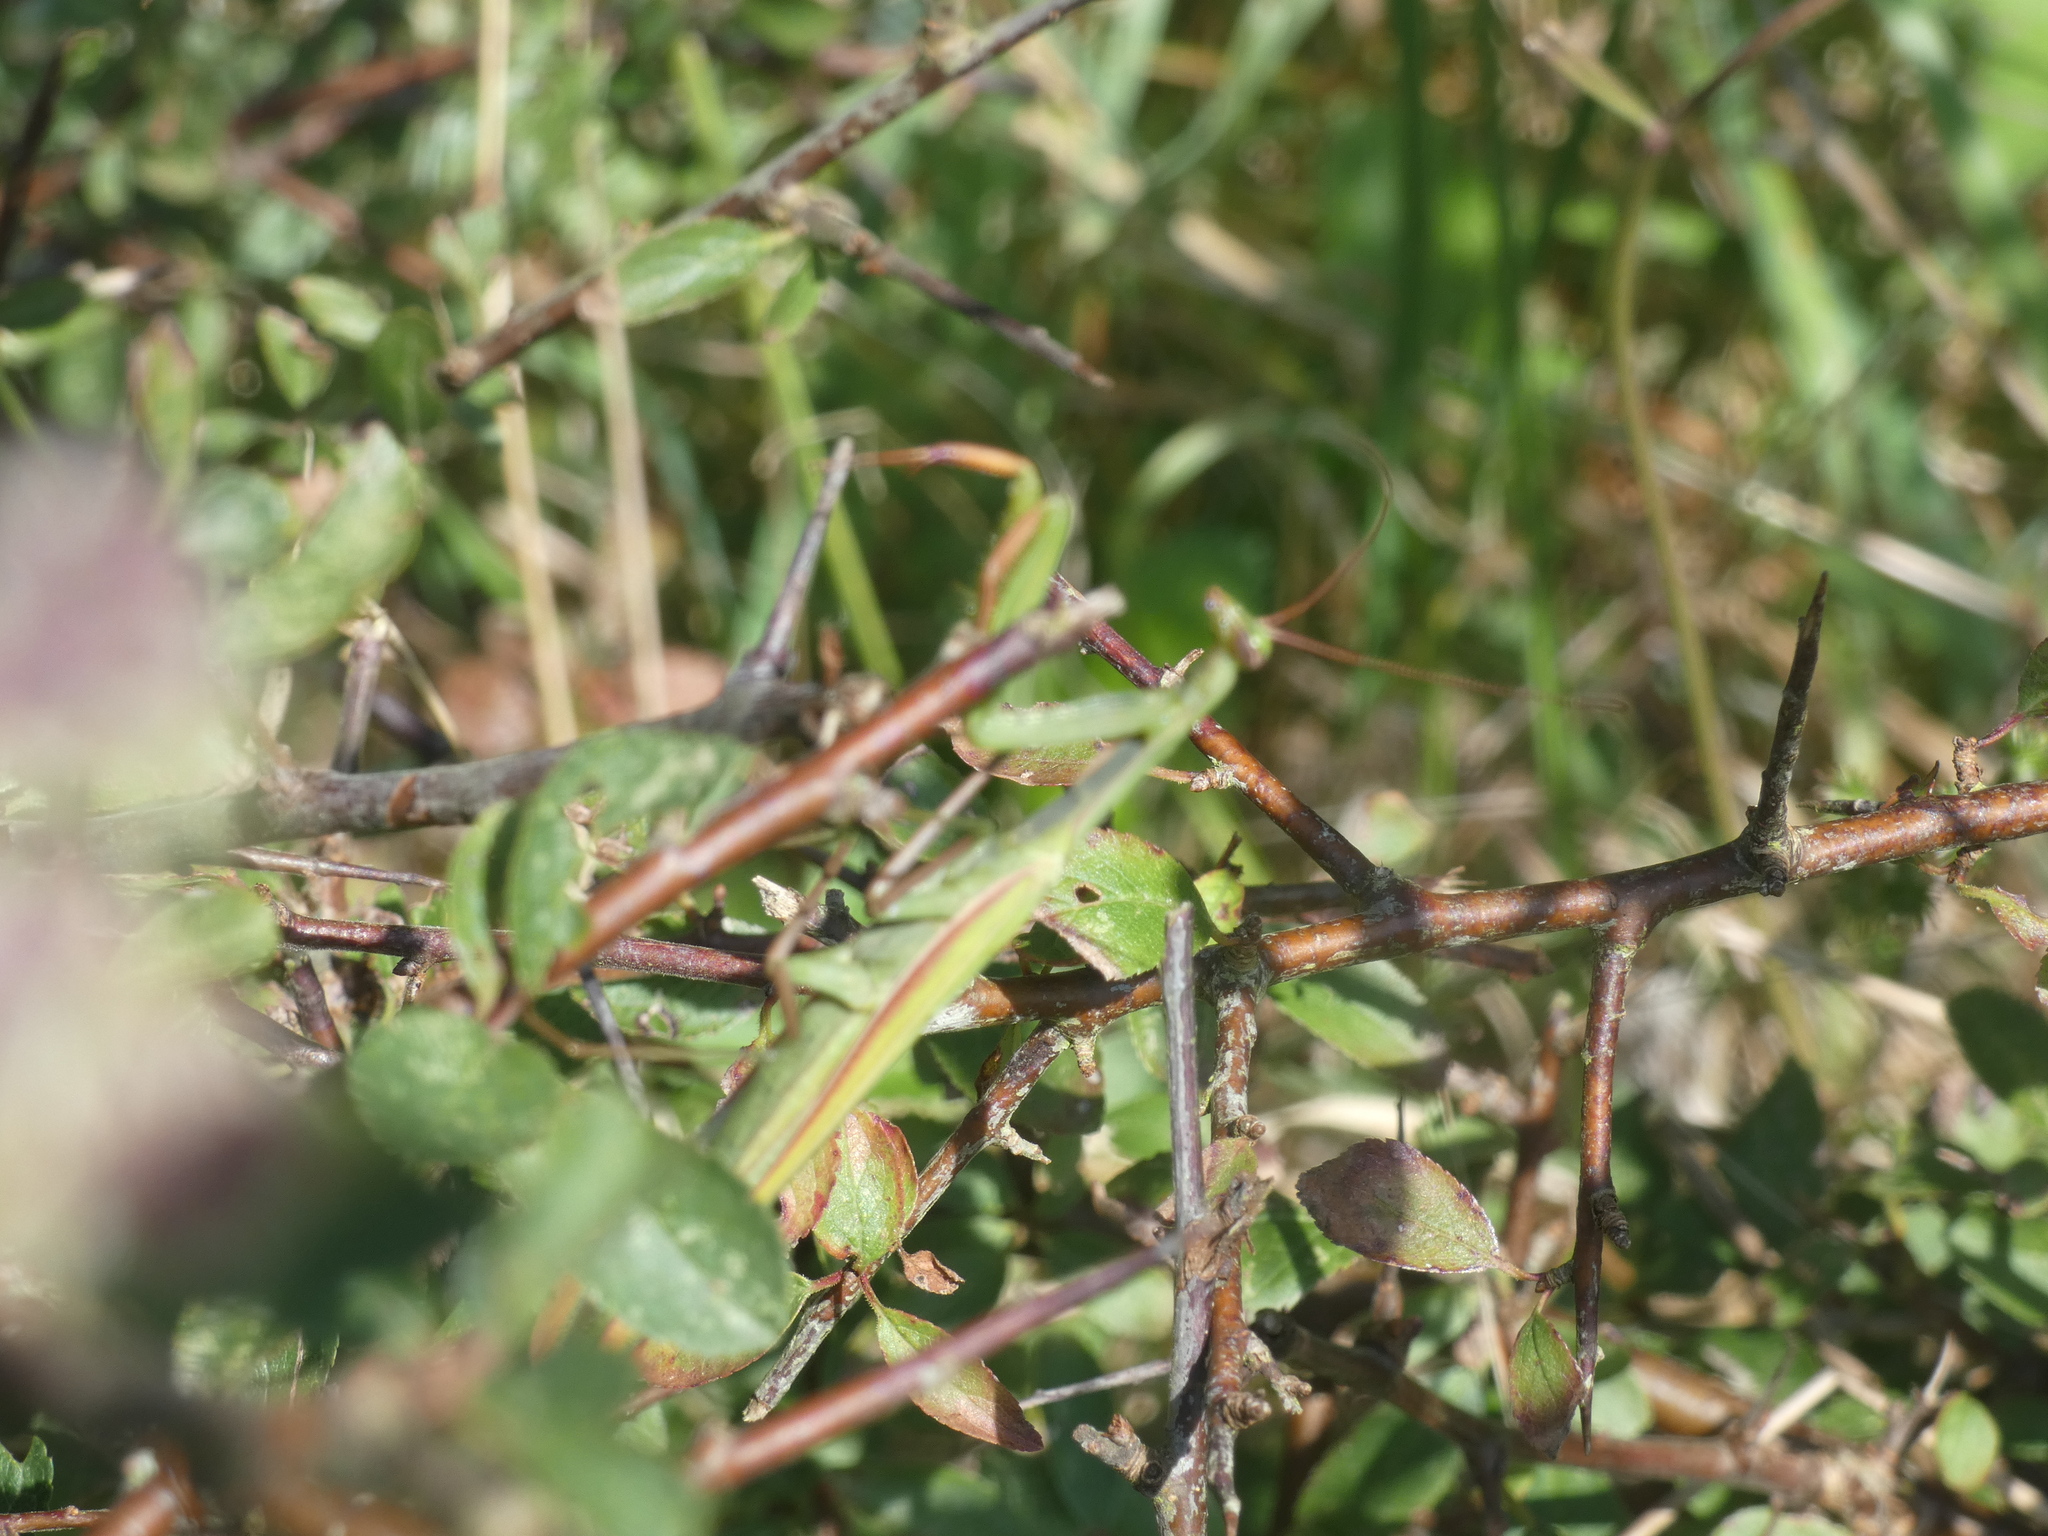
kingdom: Animalia
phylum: Arthropoda
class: Insecta
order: Mantodea
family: Mantidae
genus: Mantis
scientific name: Mantis religiosa
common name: Praying mantis
